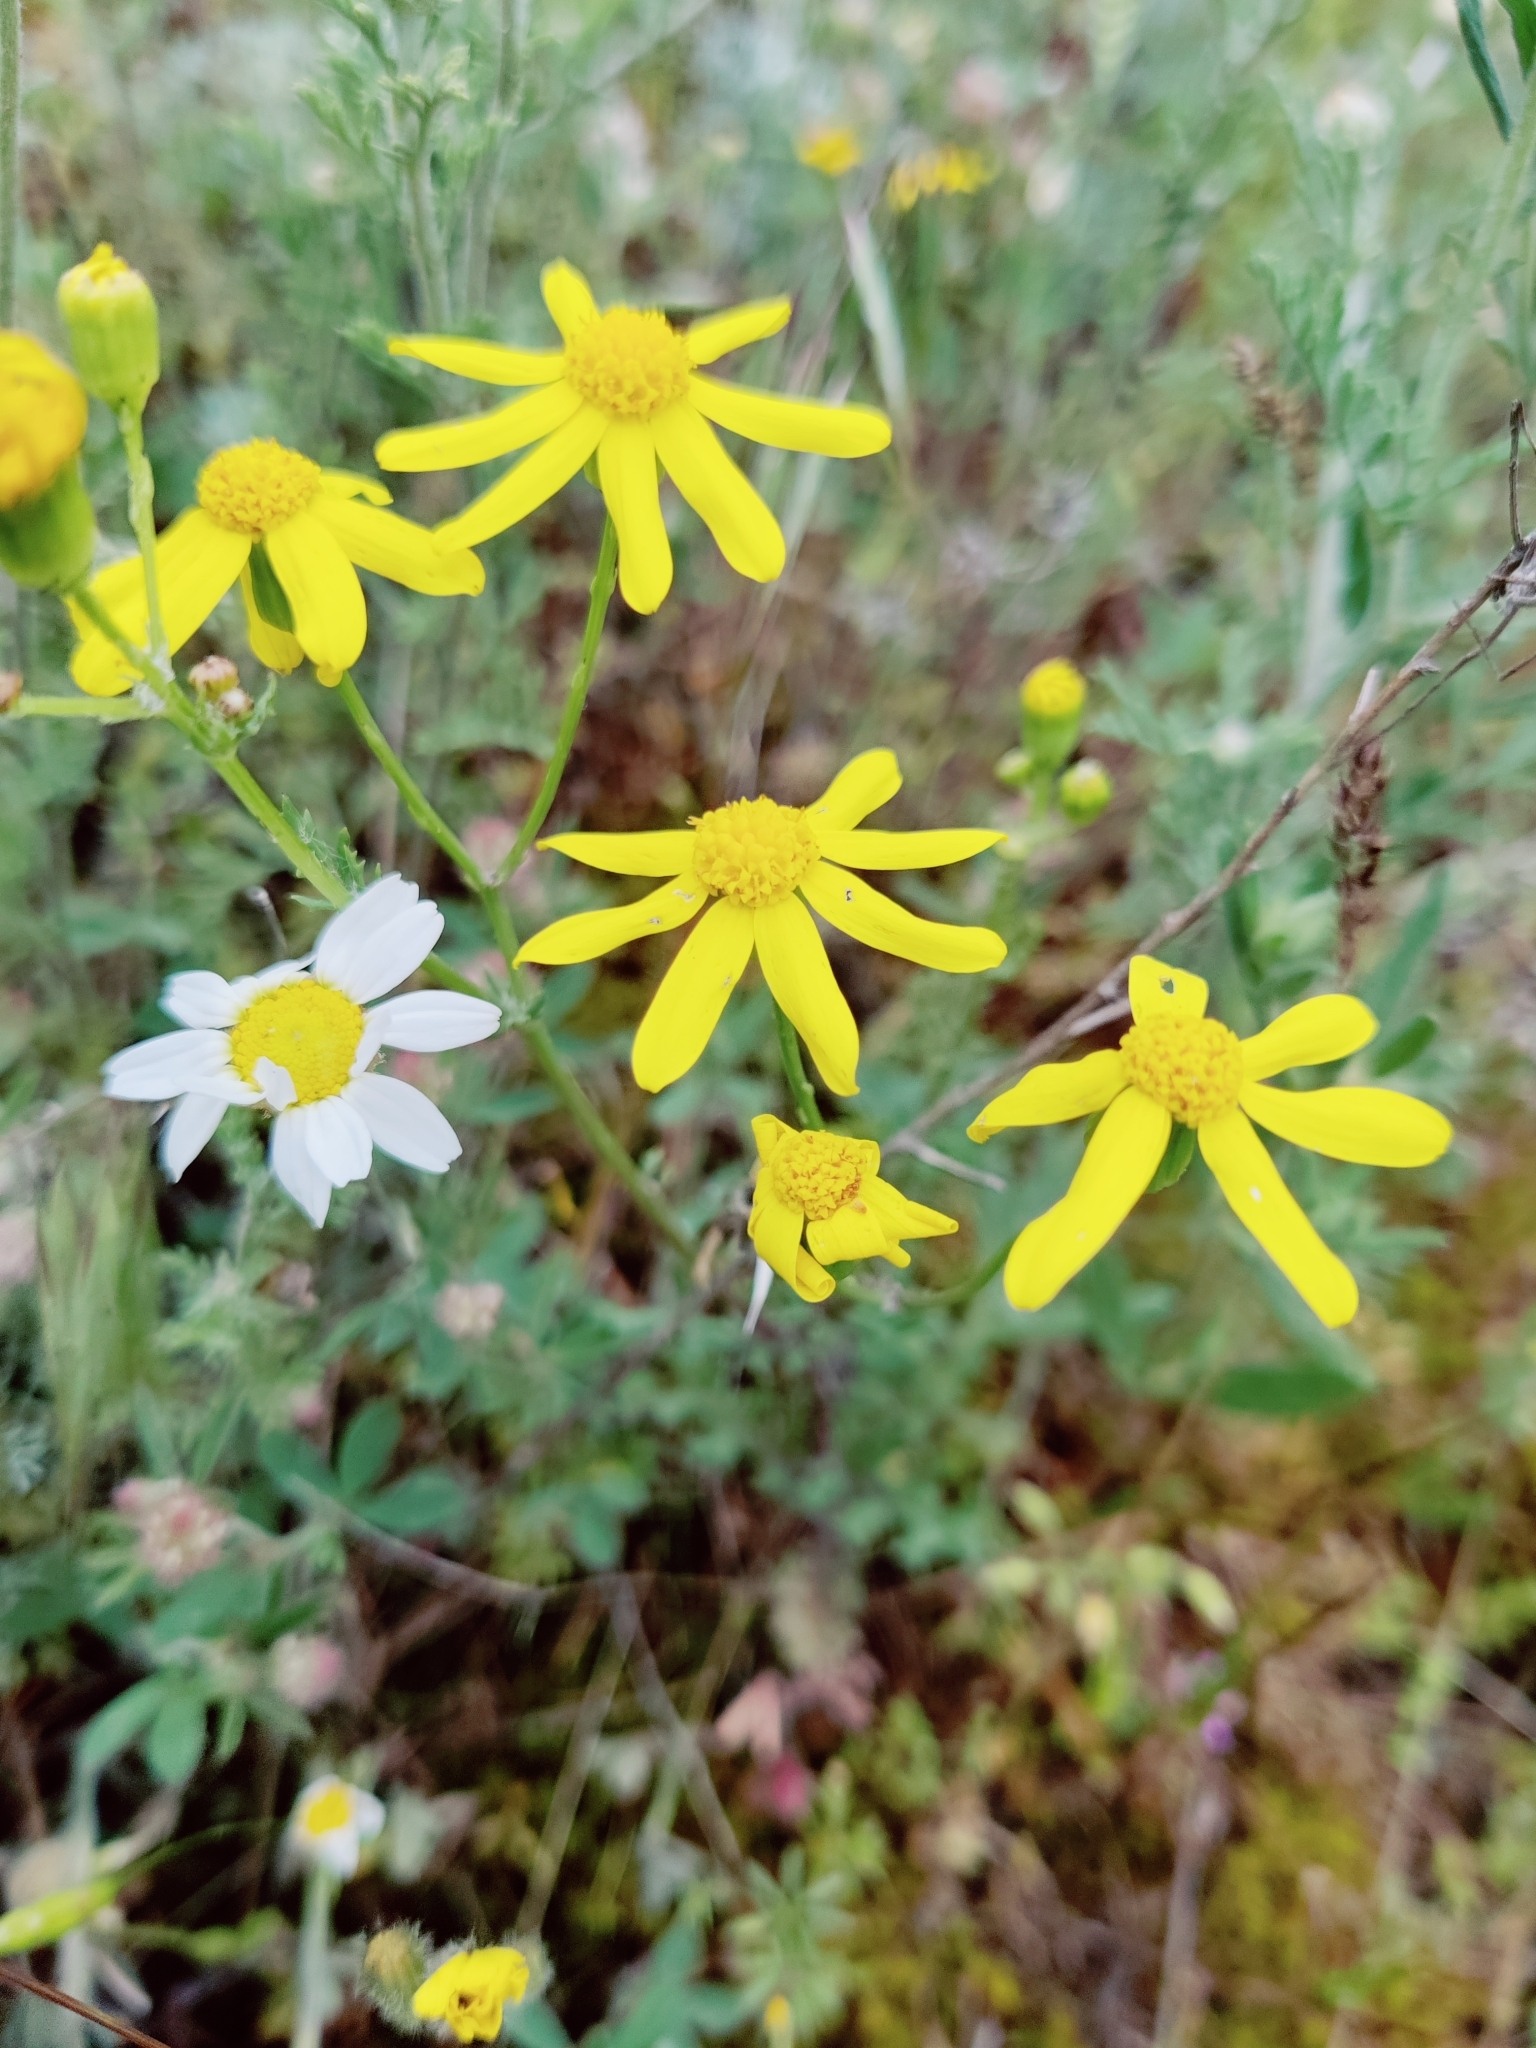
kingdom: Plantae
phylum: Tracheophyta
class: Magnoliopsida
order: Asterales
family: Asteraceae
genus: Senecio
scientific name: Senecio vernalis
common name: Eastern groundsel
